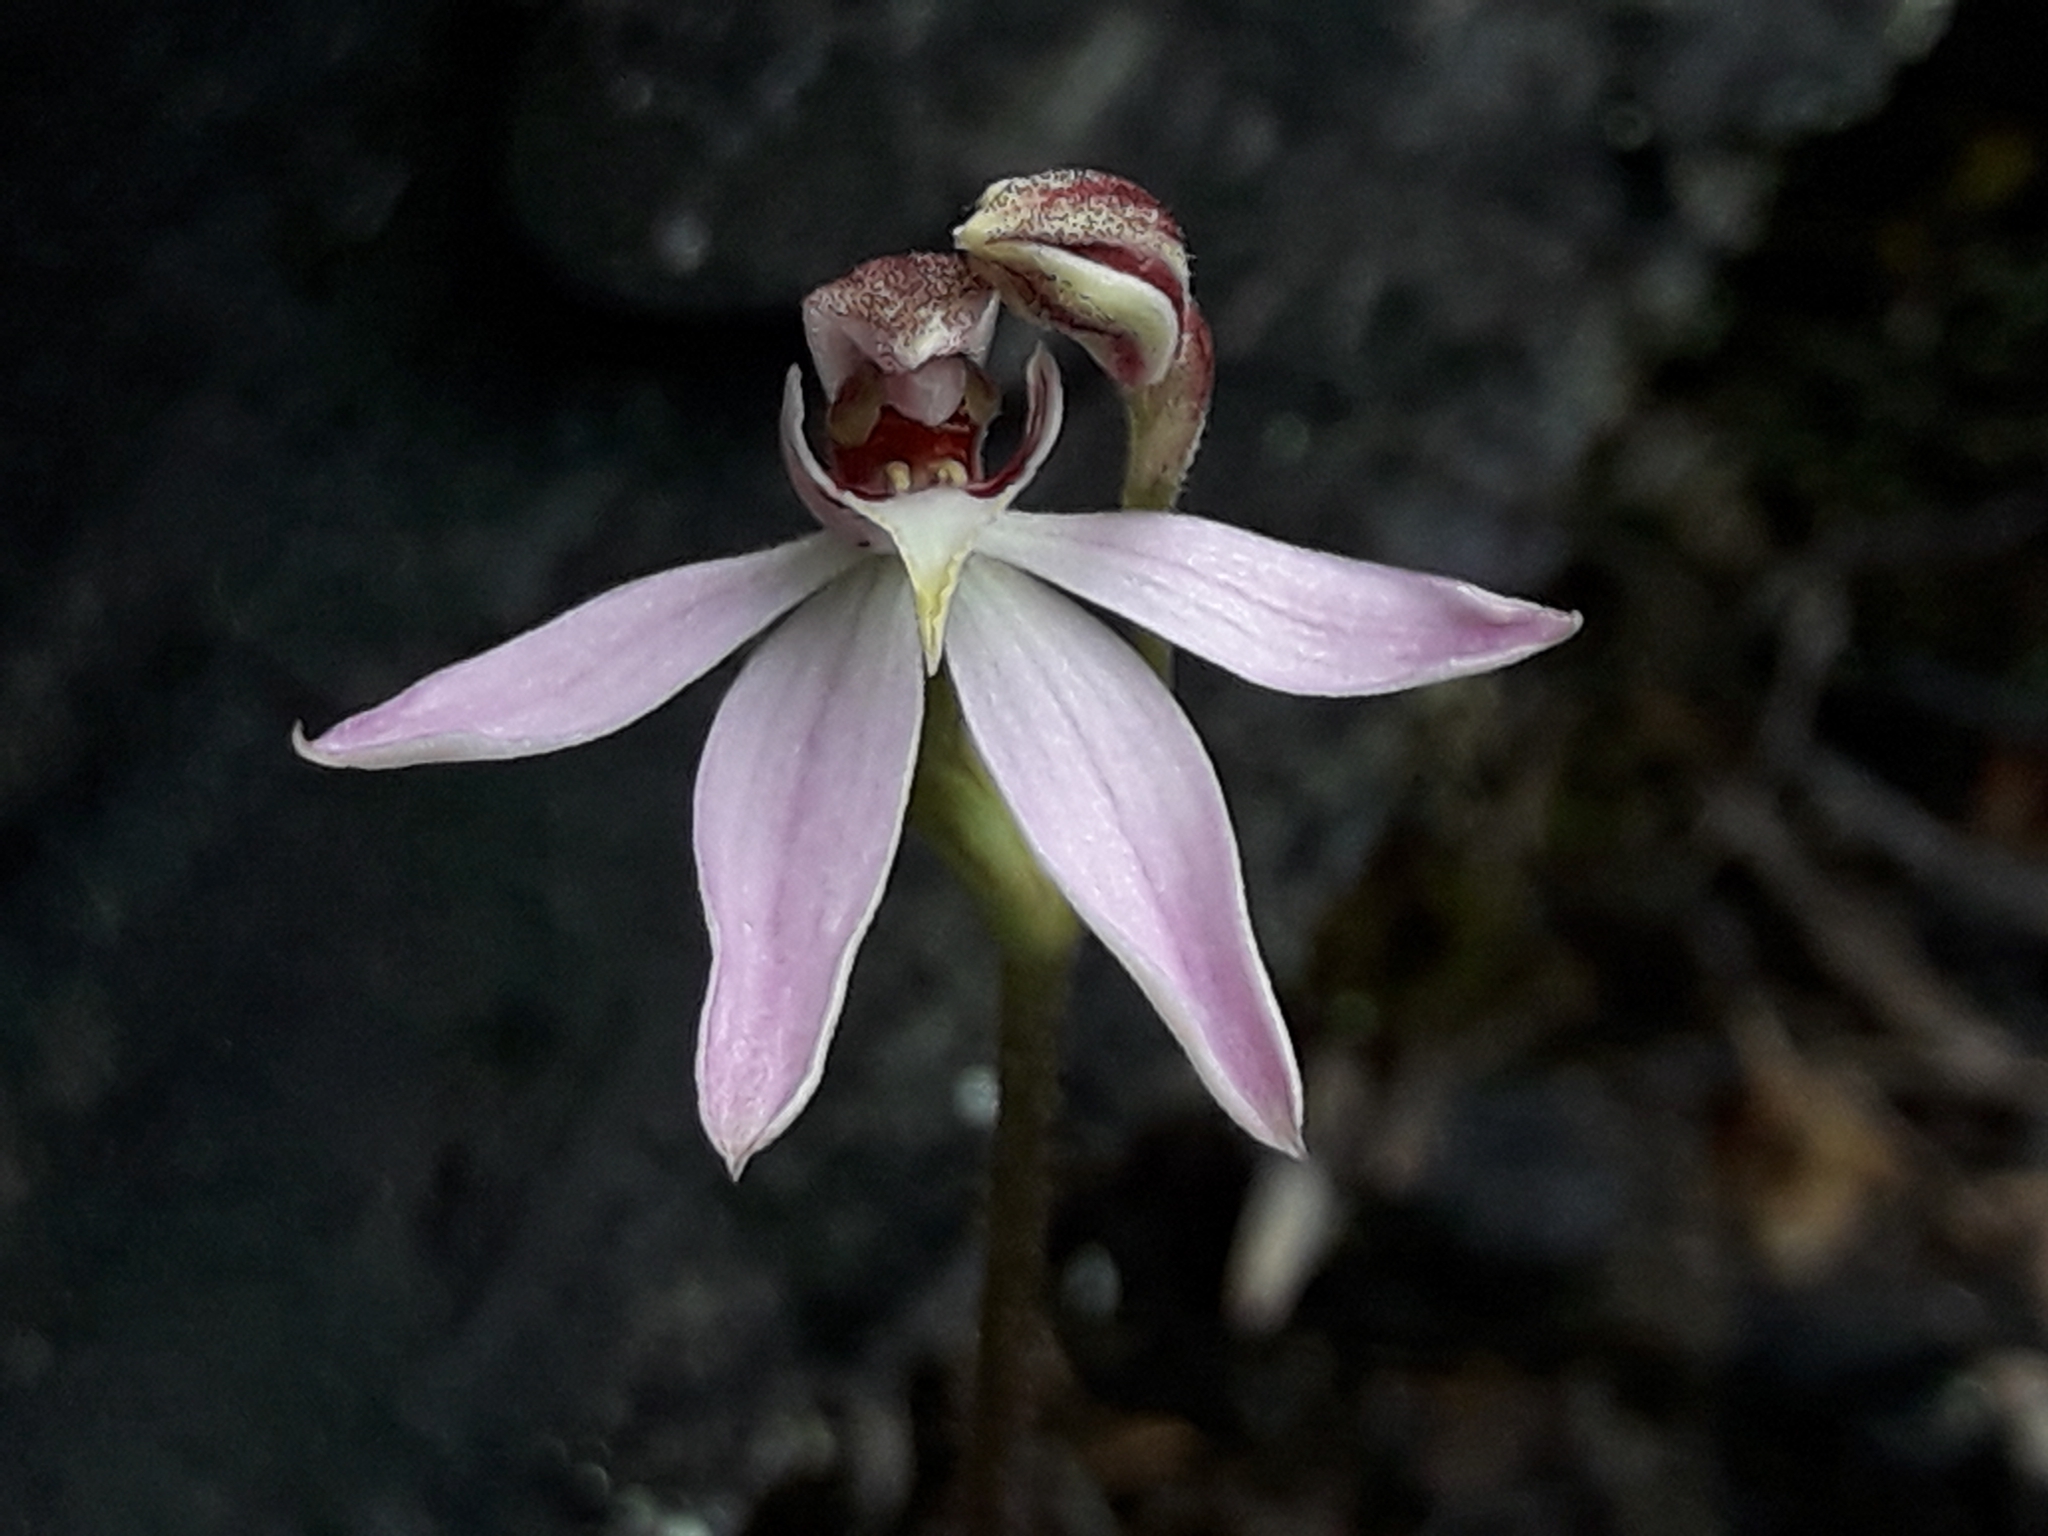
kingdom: Plantae
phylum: Tracheophyta
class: Liliopsida
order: Asparagales
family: Orchidaceae
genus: Caladenia
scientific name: Caladenia variegata
